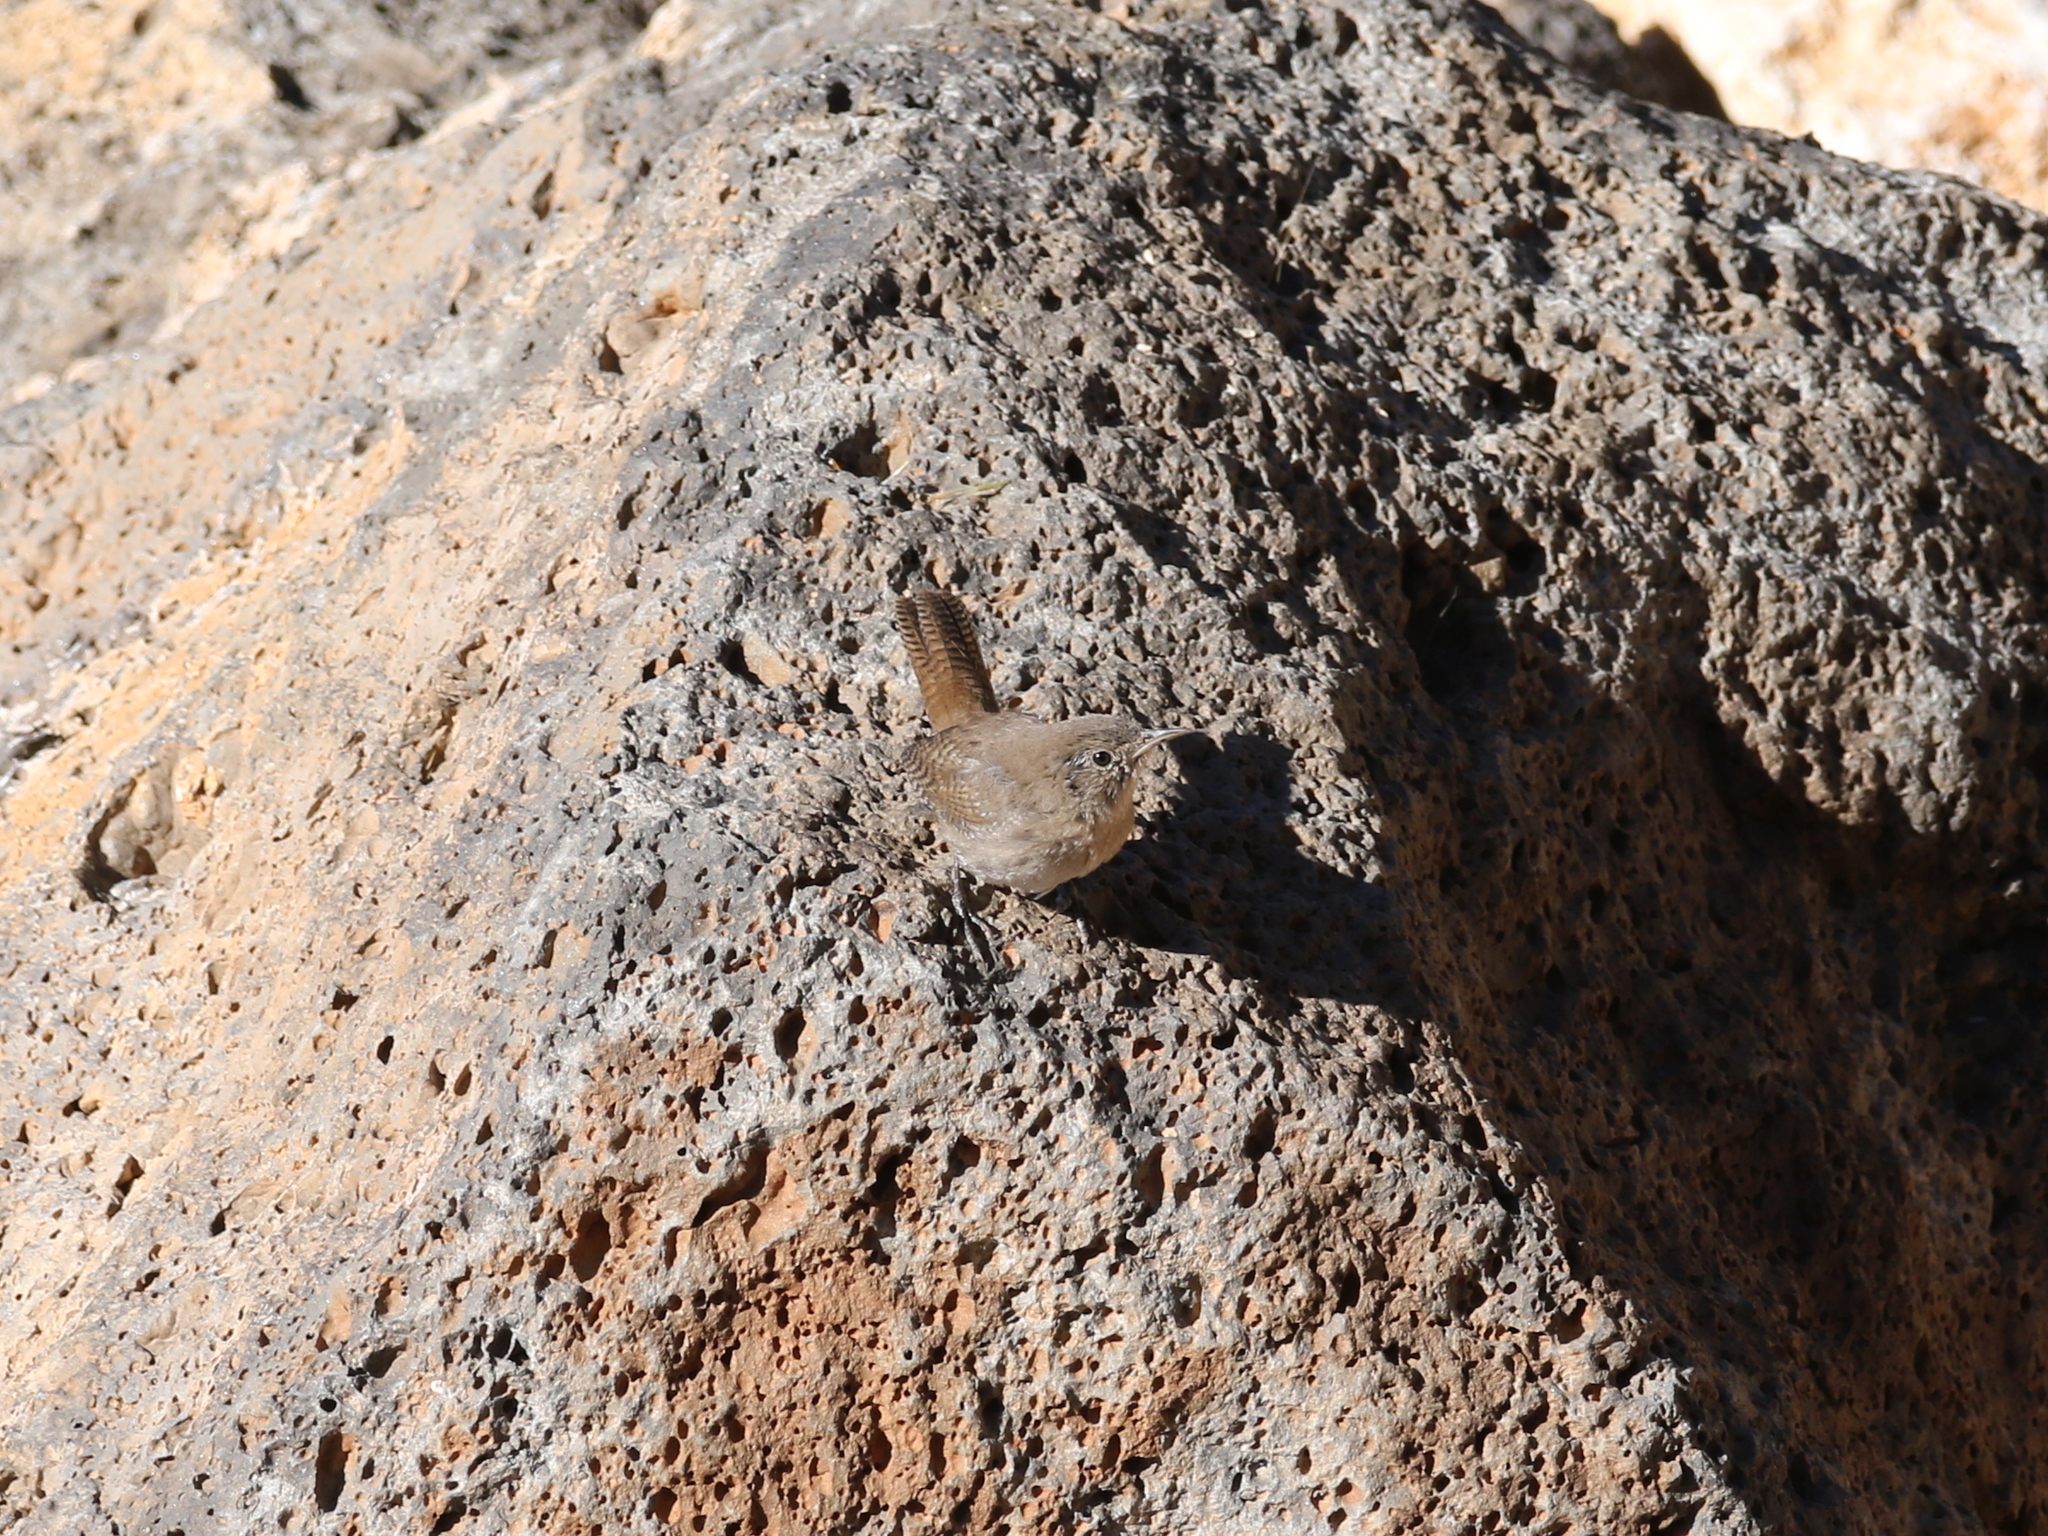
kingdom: Animalia
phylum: Chordata
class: Aves
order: Passeriformes
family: Troglodytidae
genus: Troglodytes
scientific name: Troglodytes aedon
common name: House wren
